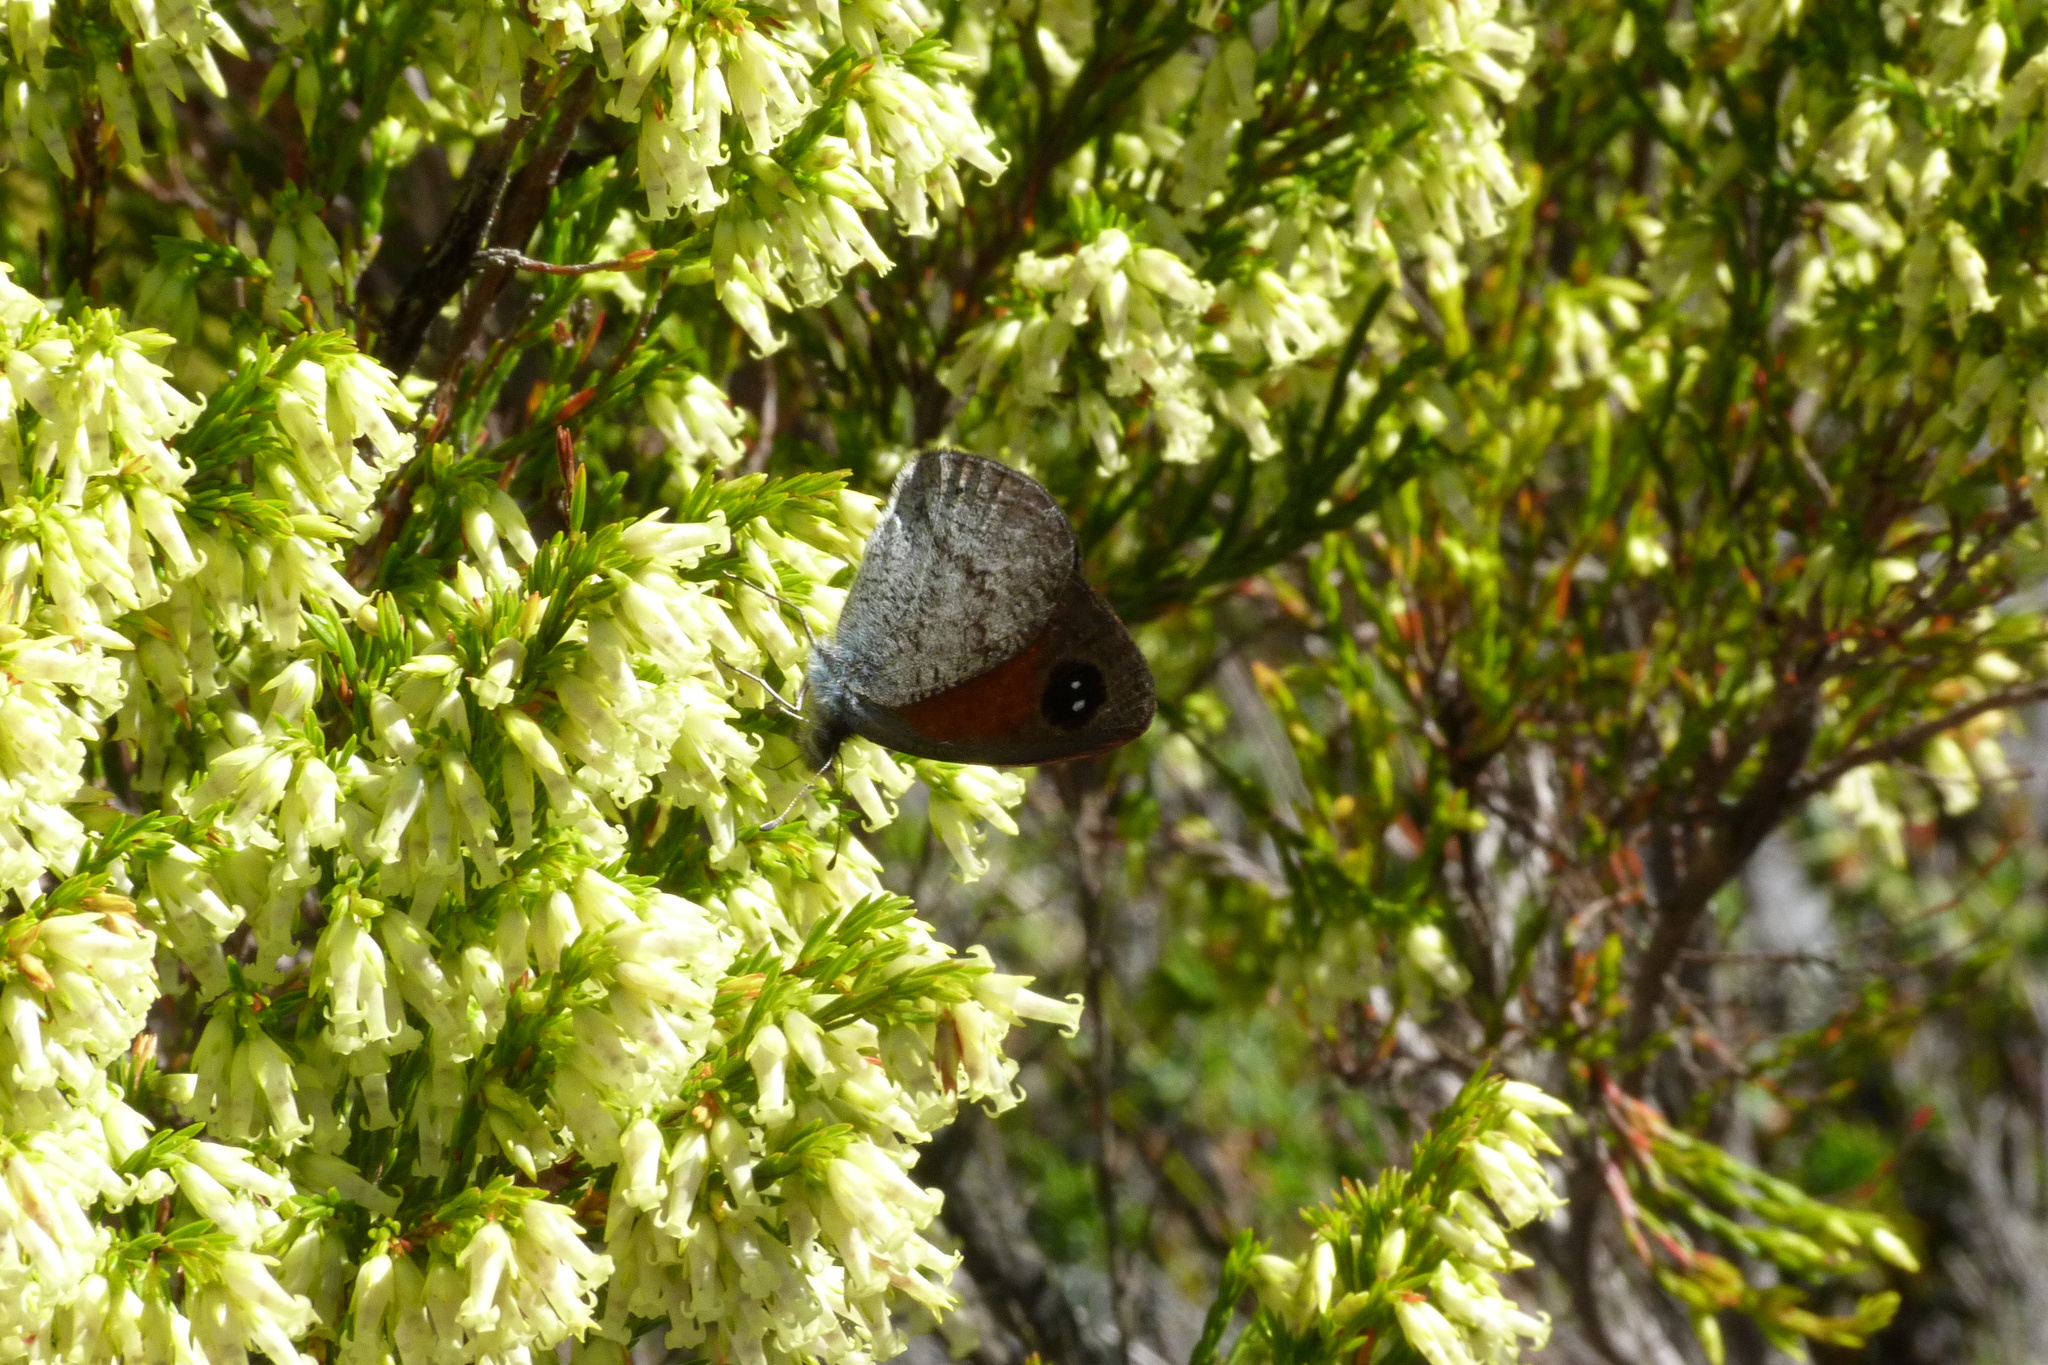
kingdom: Animalia
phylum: Arthropoda
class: Insecta
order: Lepidoptera
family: Nymphalidae
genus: Pseudonympha
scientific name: Pseudonympha hippia
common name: Table mountain brown
